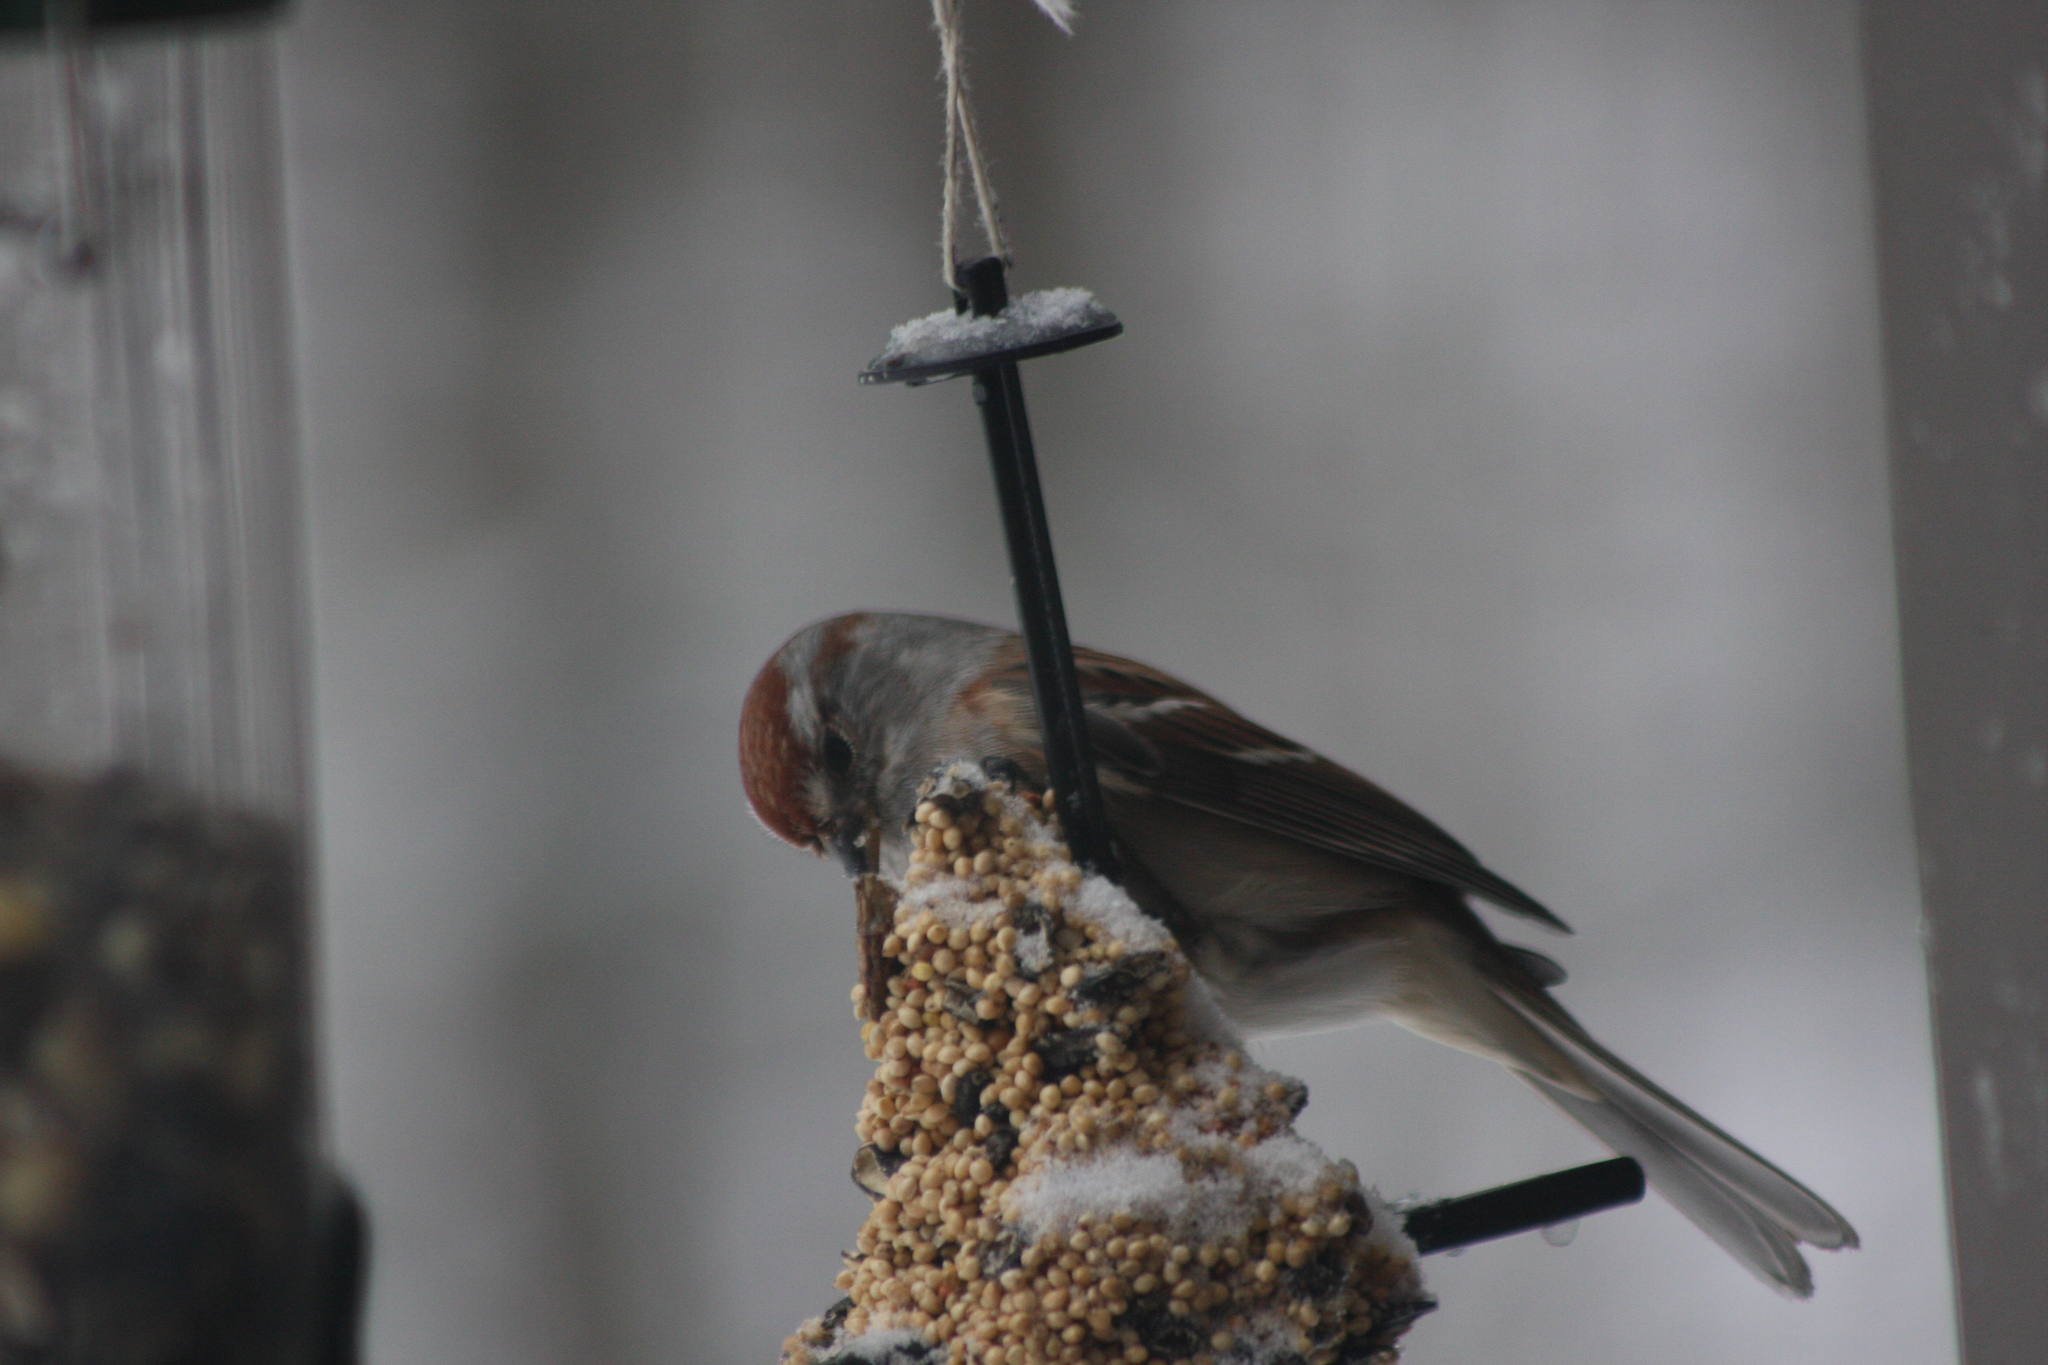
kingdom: Animalia
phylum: Chordata
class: Aves
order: Passeriformes
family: Passerellidae
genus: Spizelloides
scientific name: Spizelloides arborea
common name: American tree sparrow
